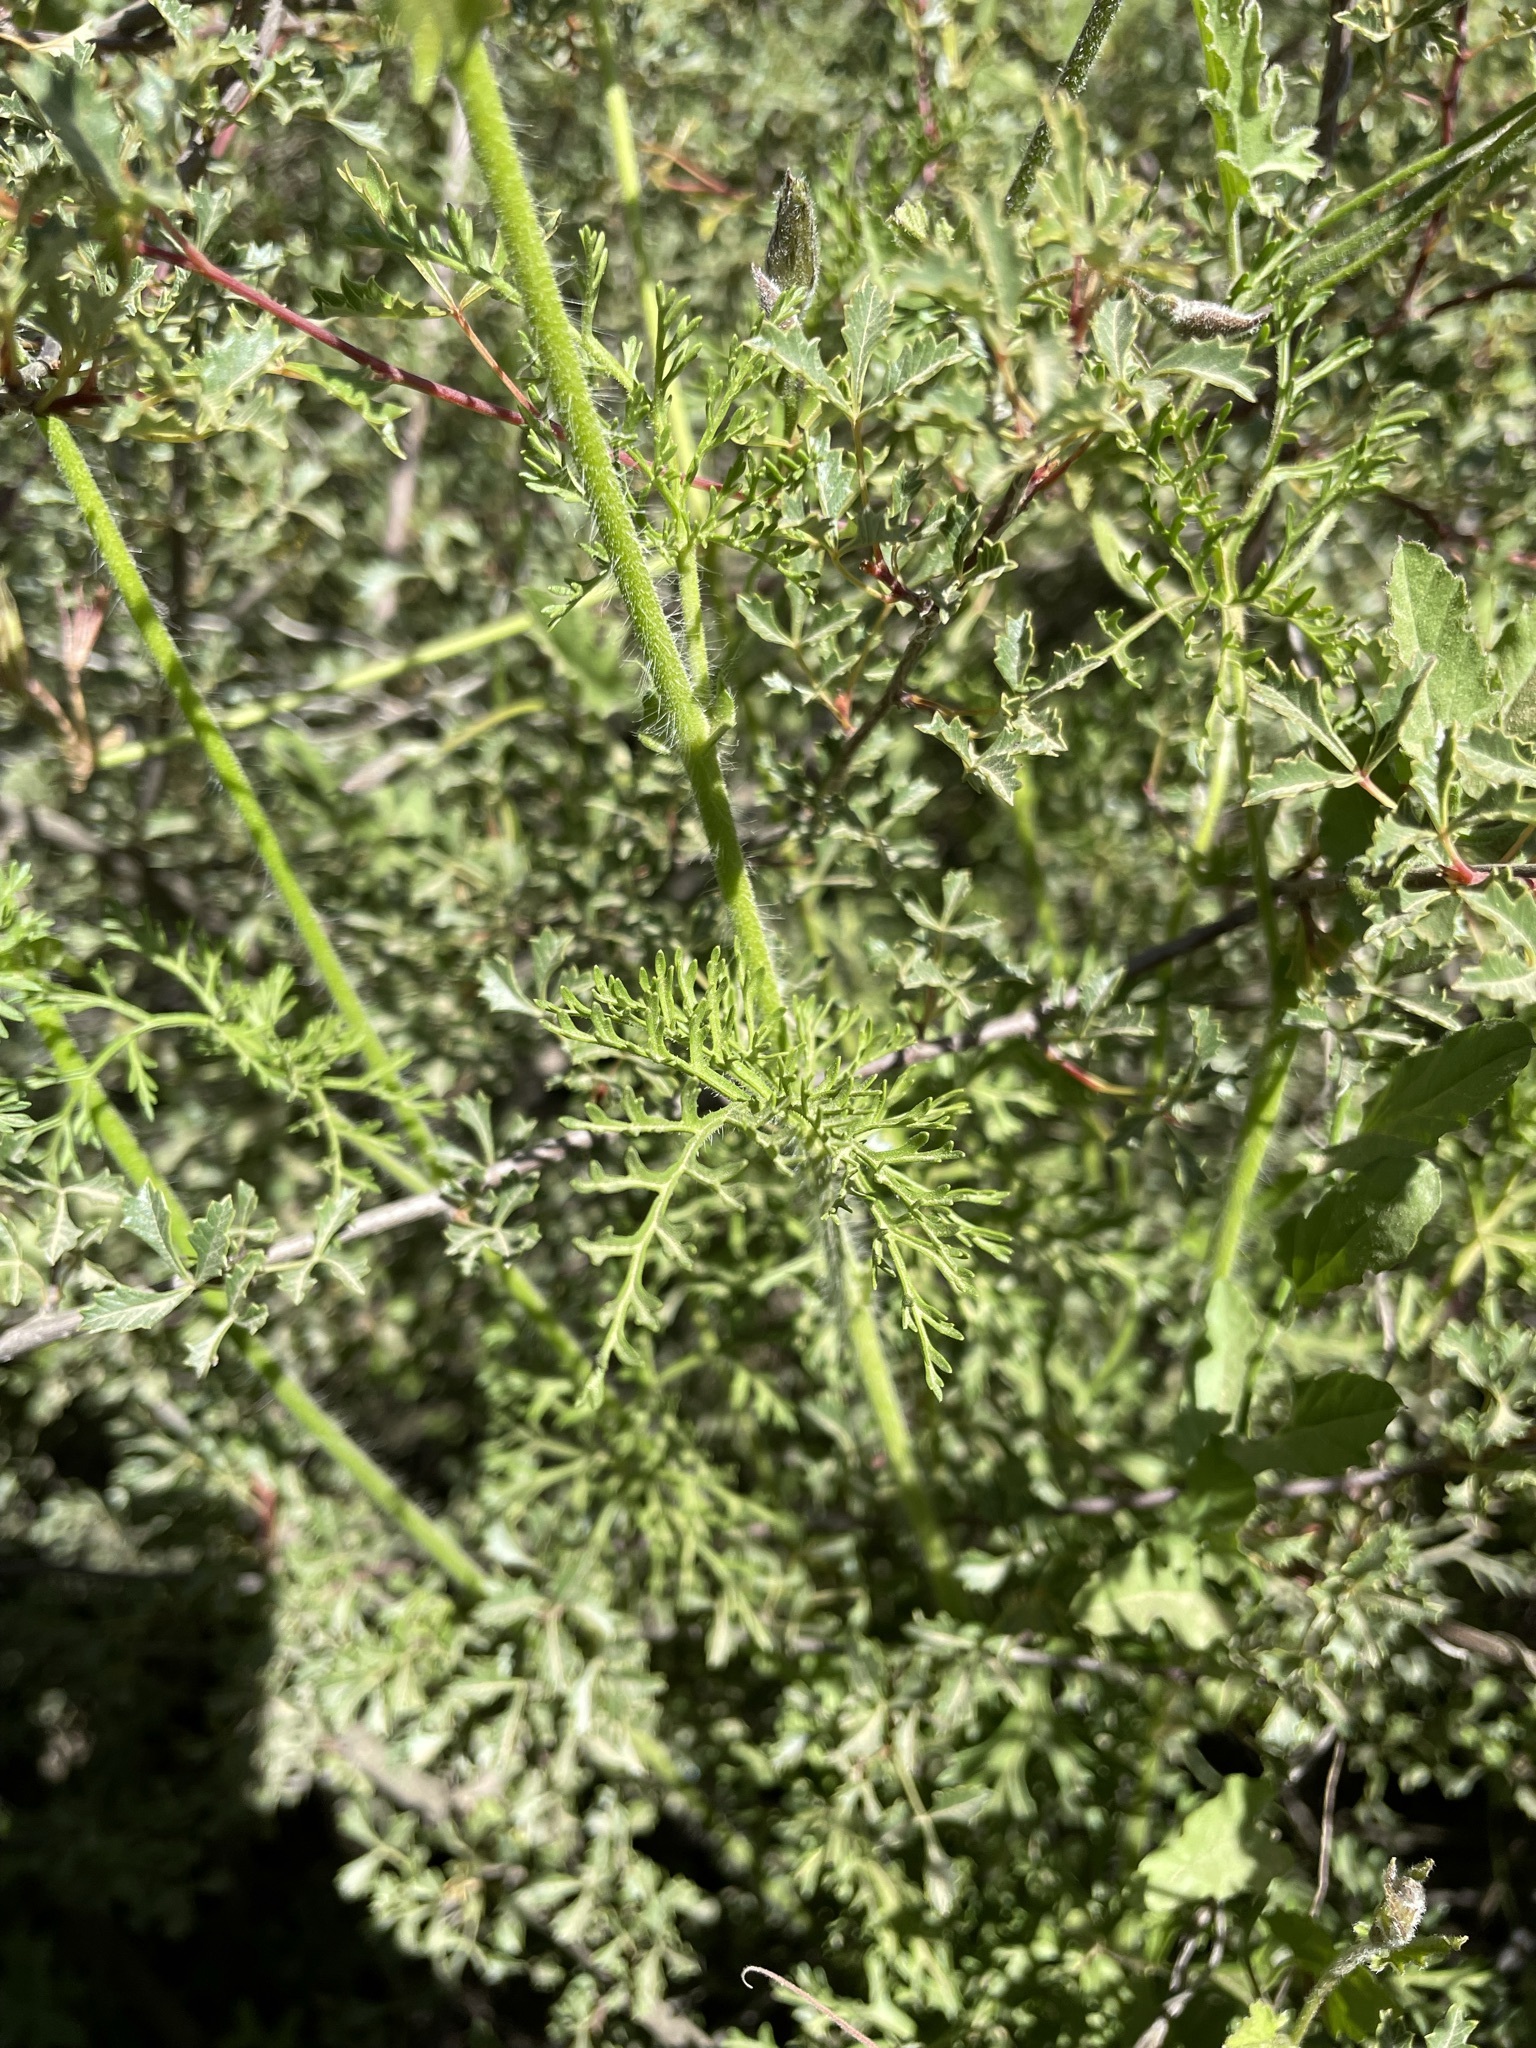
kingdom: Plantae
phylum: Tracheophyta
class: Magnoliopsida
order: Geraniales
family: Geraniaceae
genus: Pelargonium
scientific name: Pelargonium myrrhifolium
